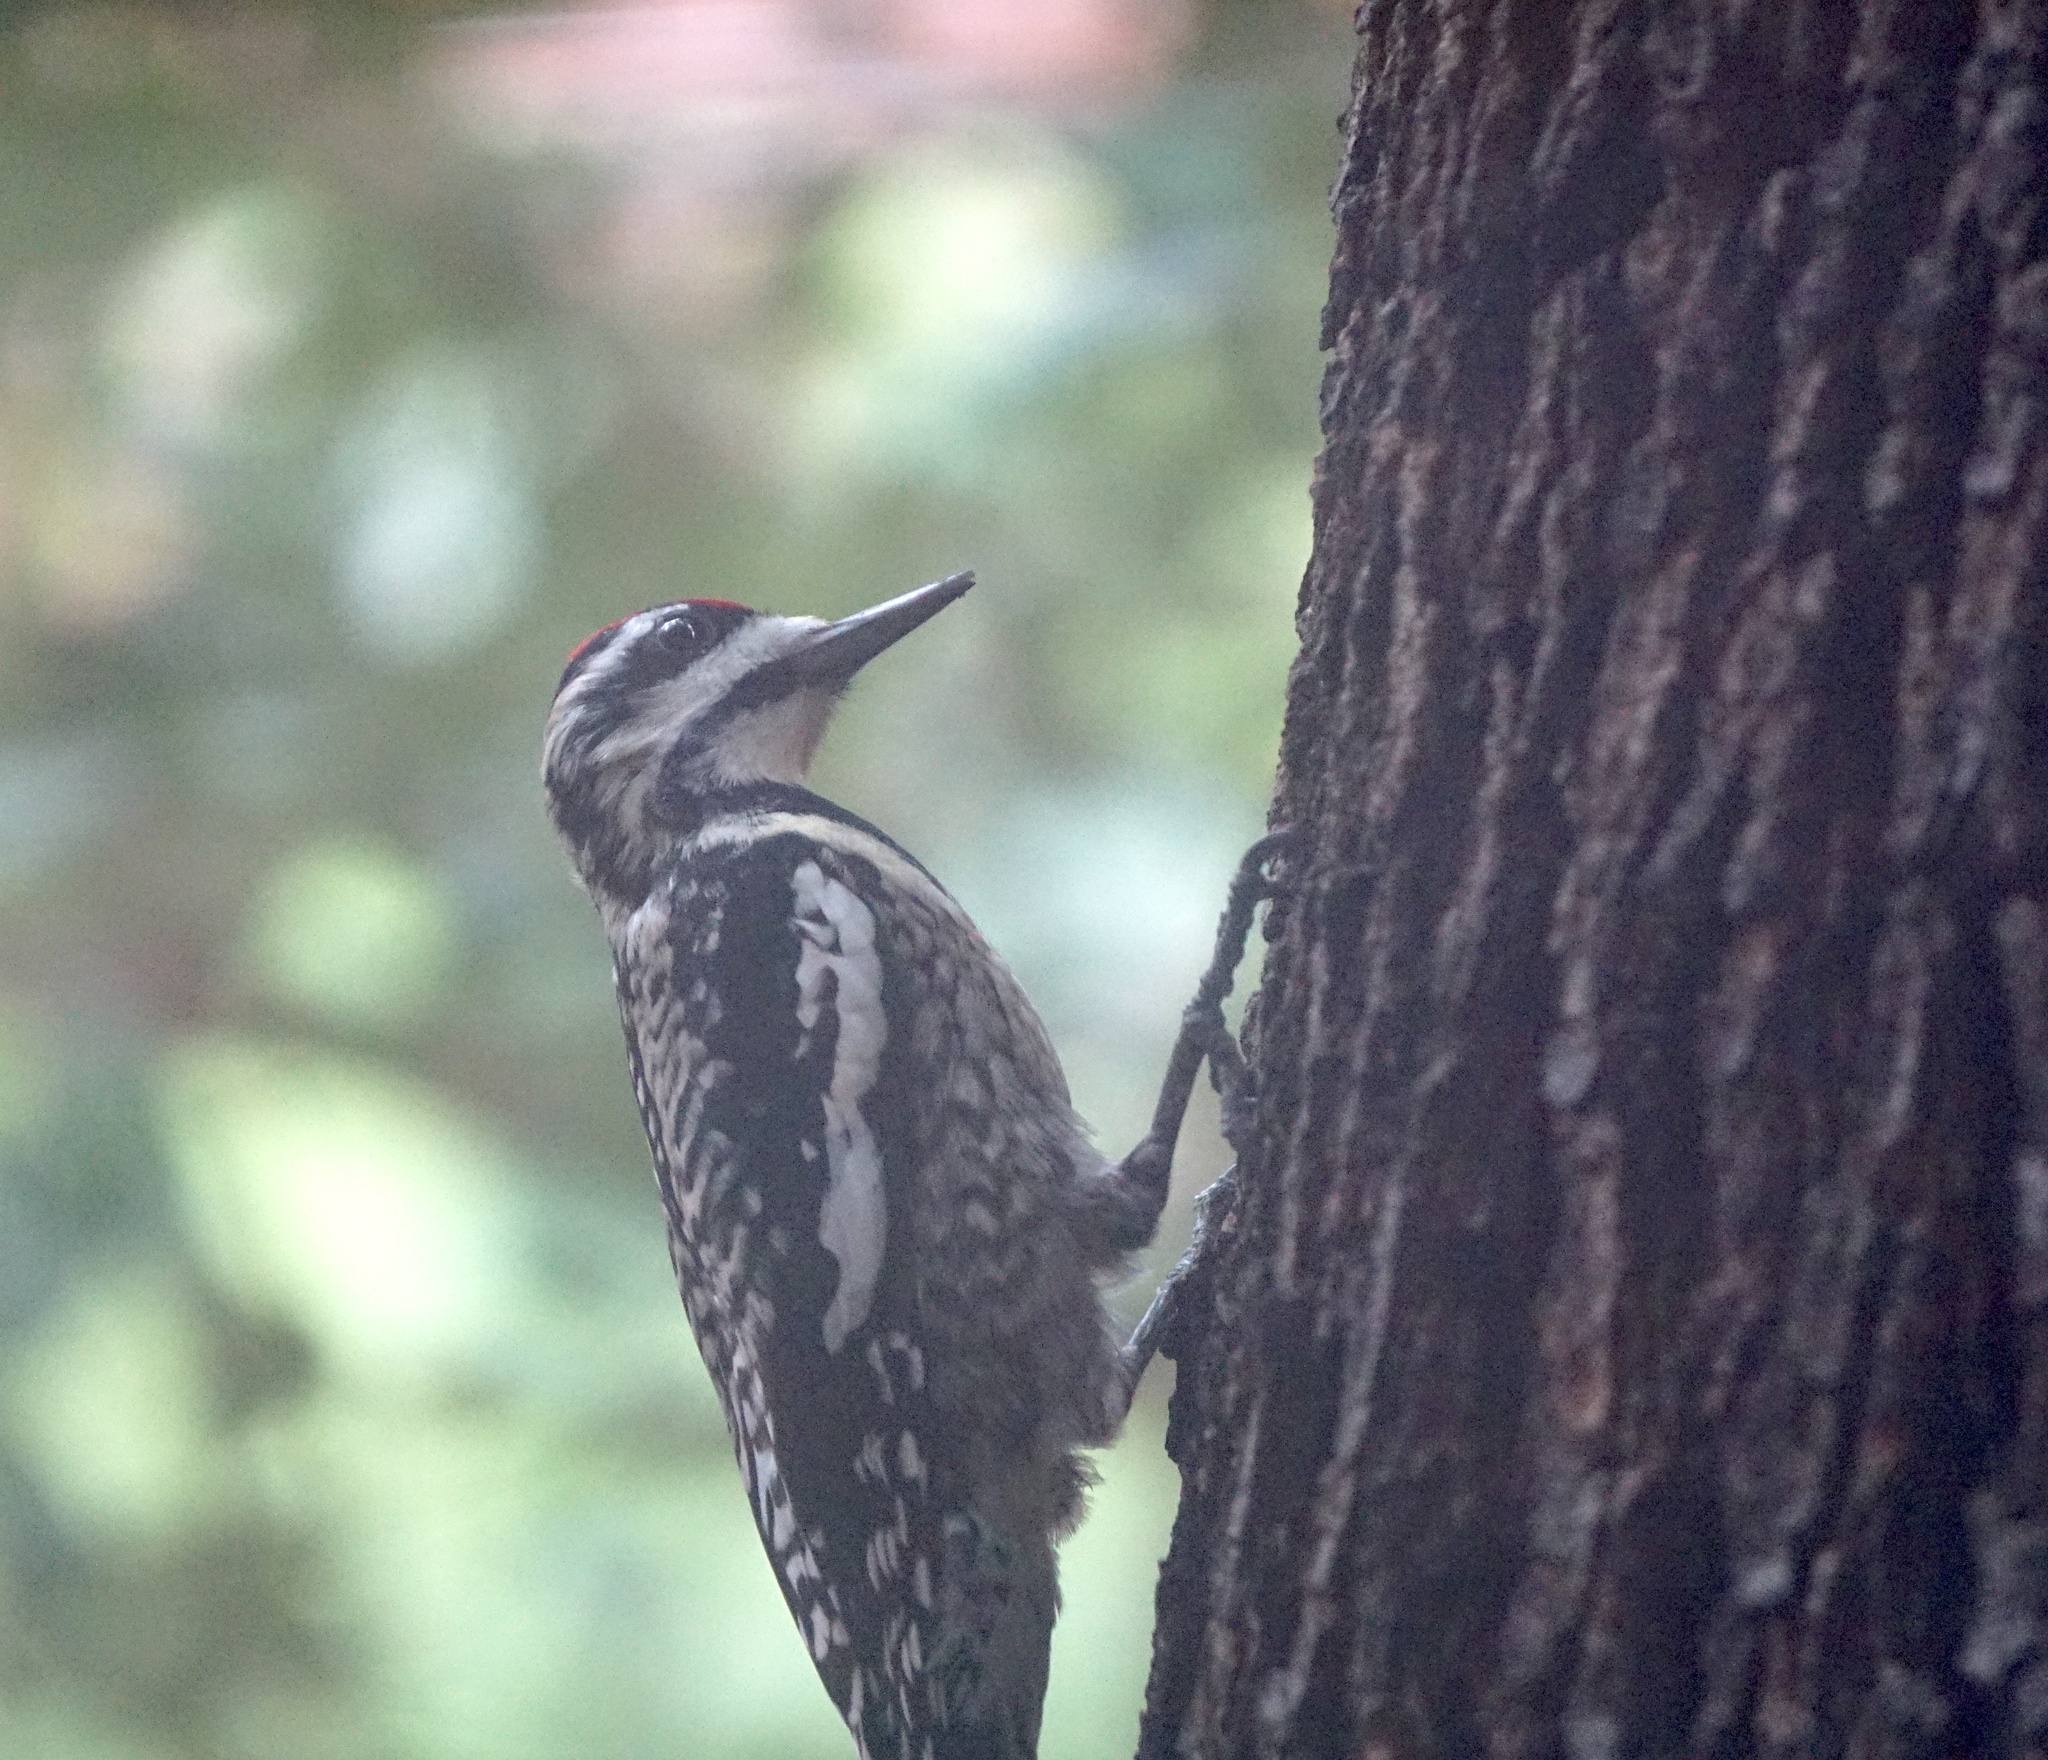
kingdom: Animalia
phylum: Chordata
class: Aves
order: Piciformes
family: Picidae
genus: Sphyrapicus
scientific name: Sphyrapicus varius
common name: Yellow-bellied sapsucker
